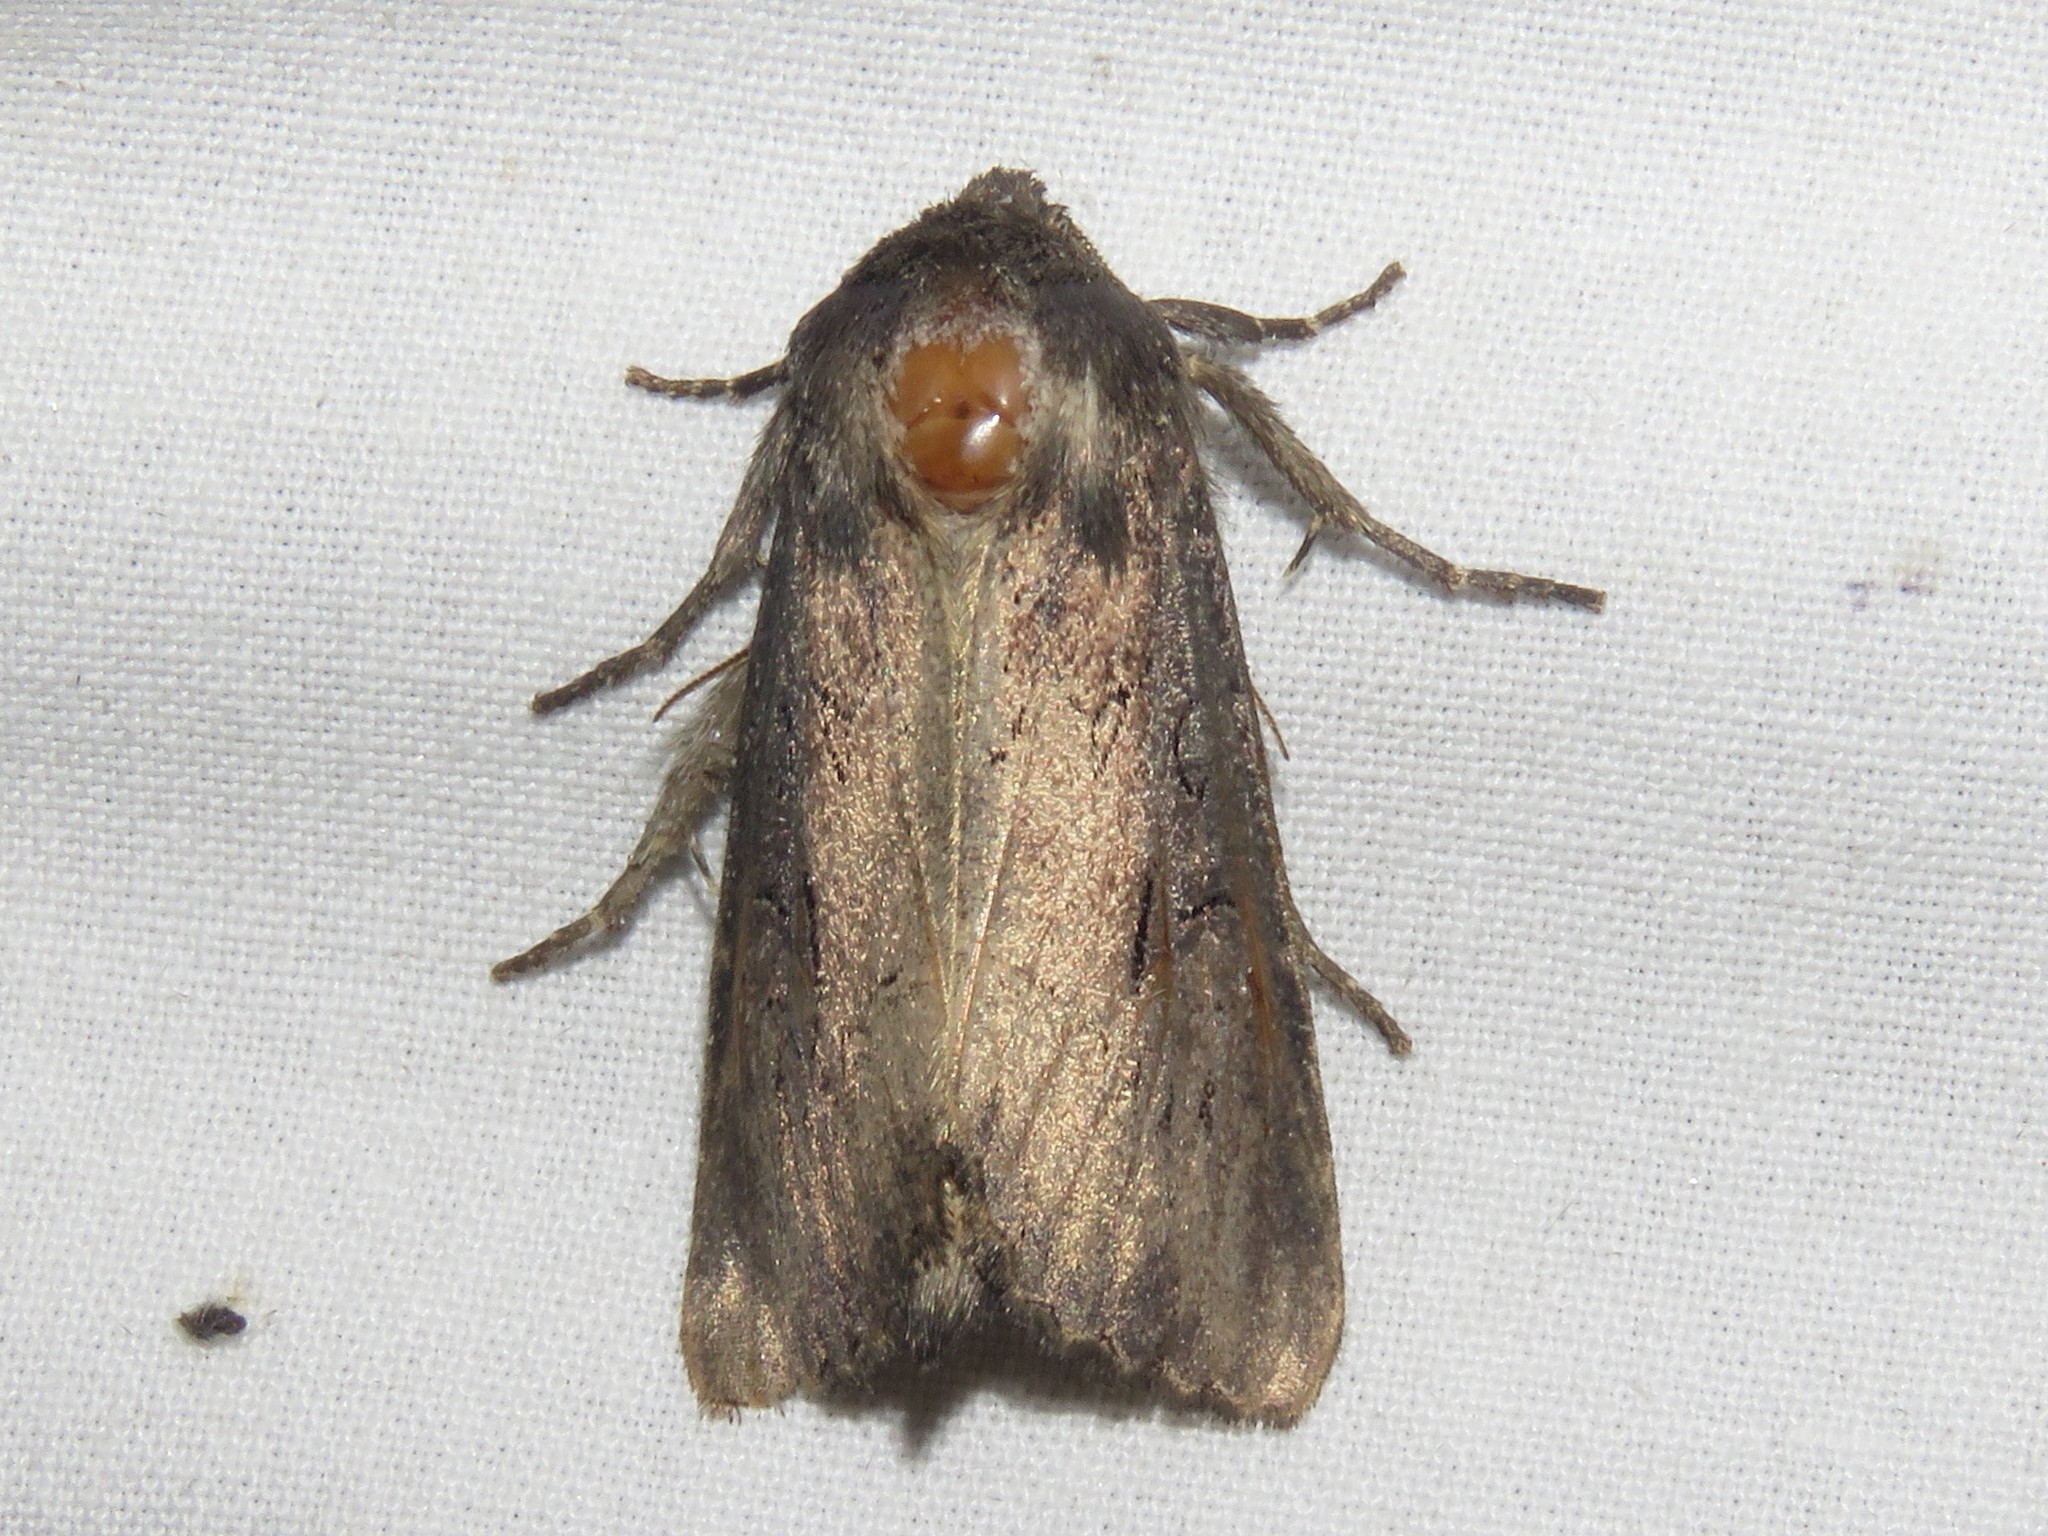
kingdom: Animalia
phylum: Arthropoda
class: Insecta
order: Lepidoptera
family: Noctuidae
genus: Macronoctua
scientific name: Macronoctua onusta
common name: Iris borer
